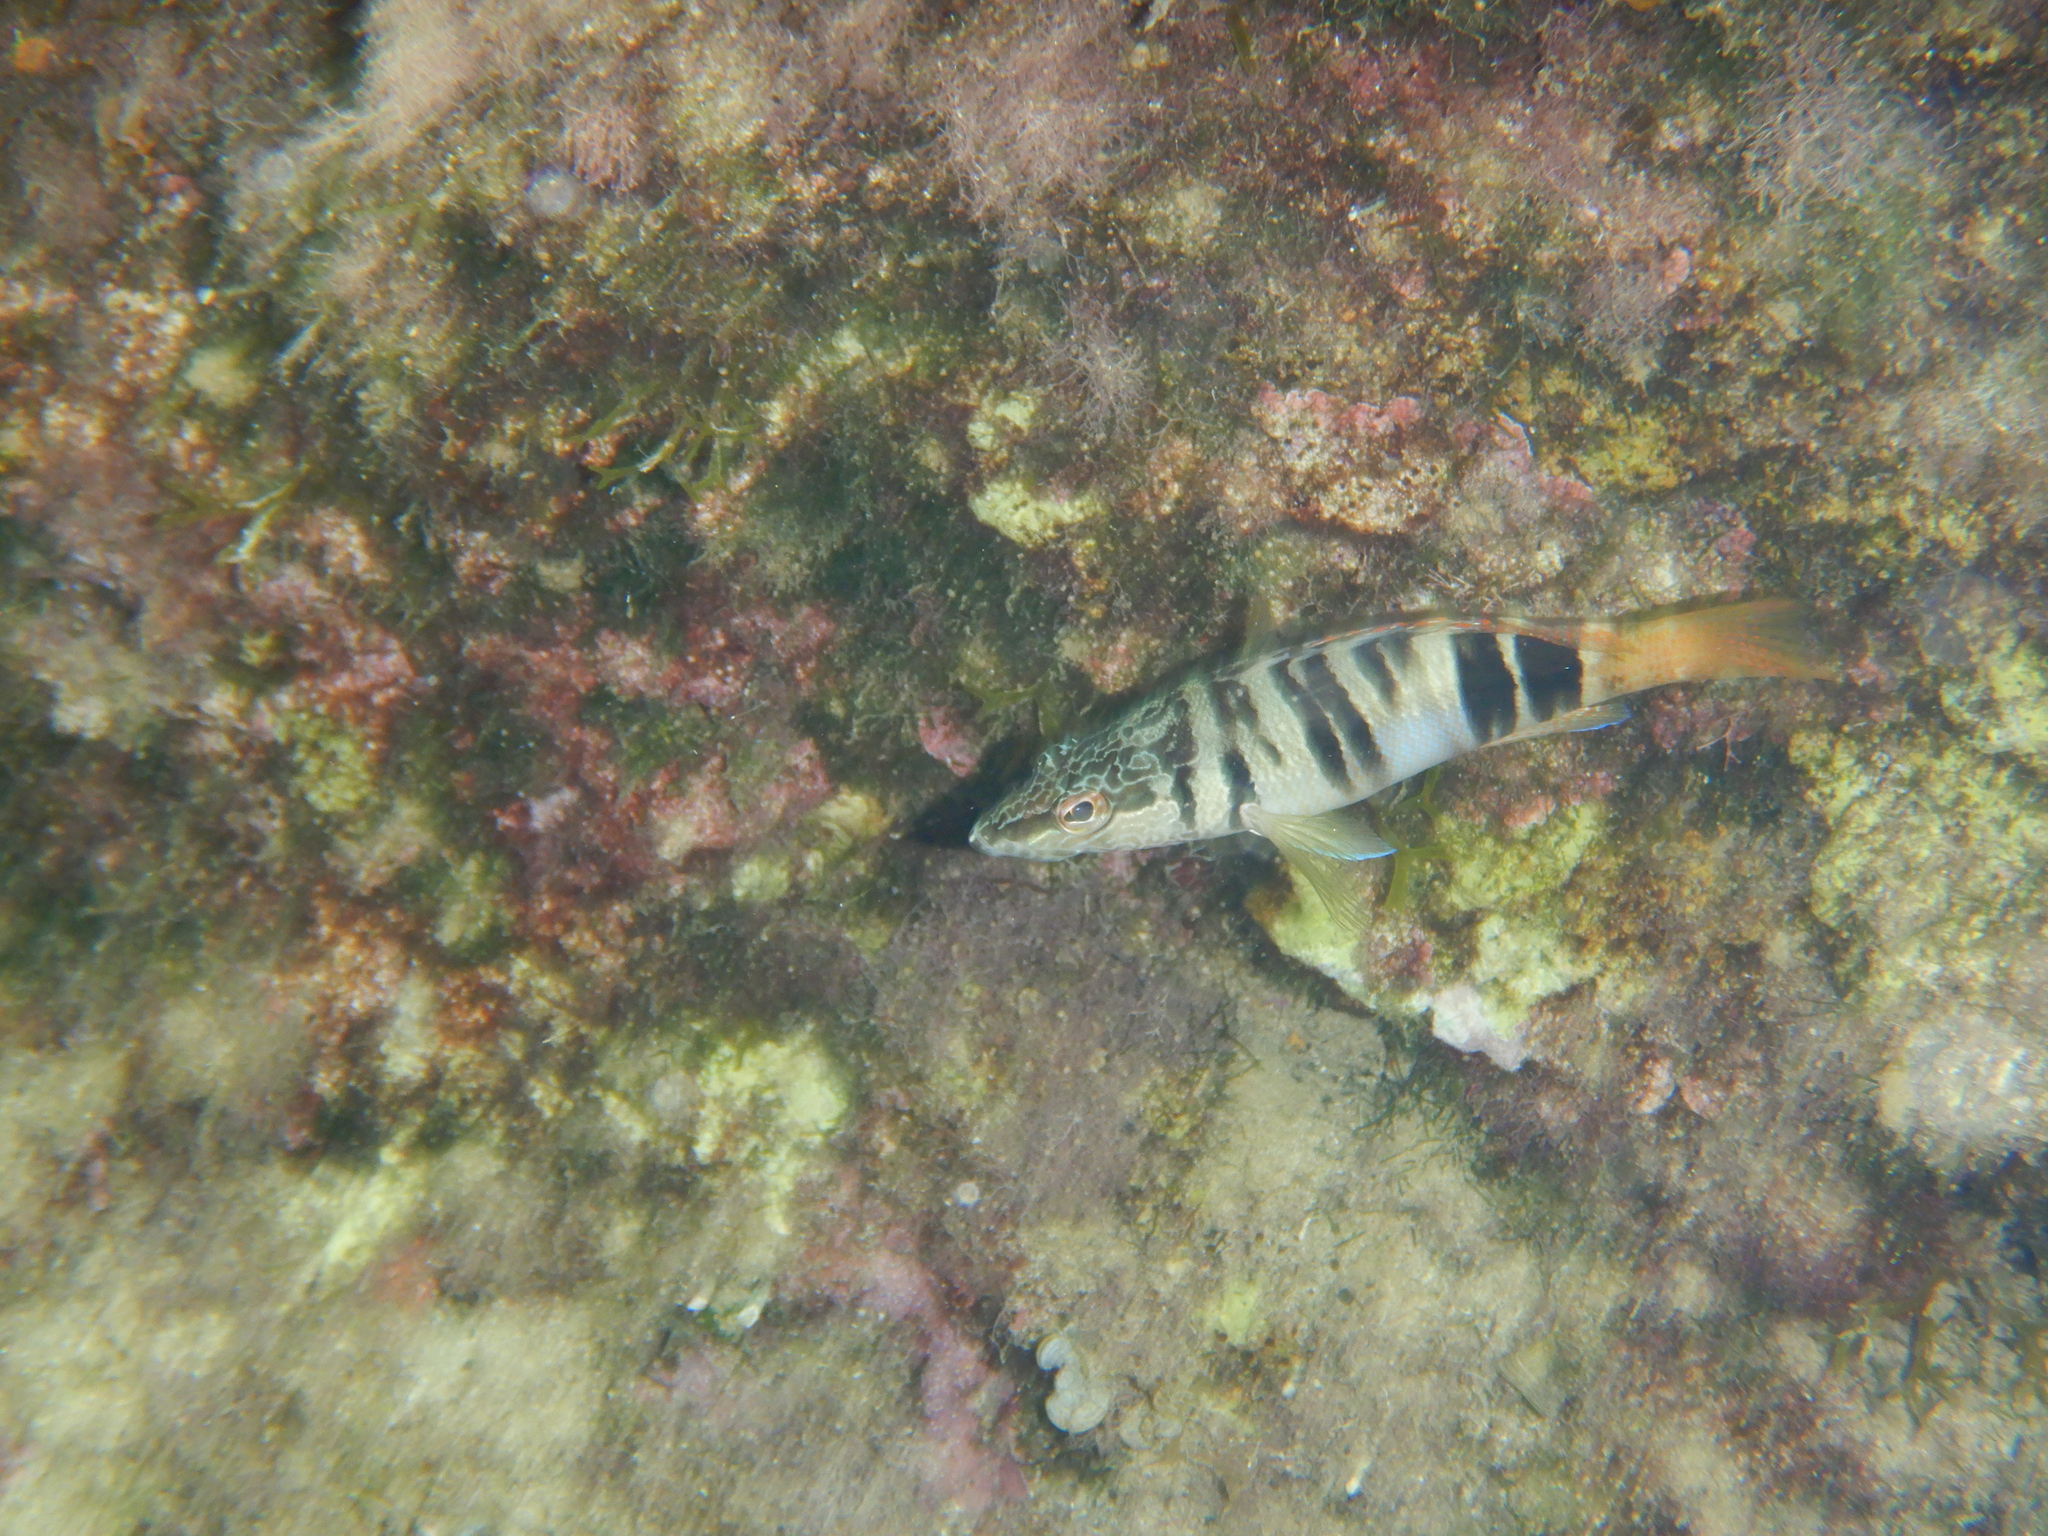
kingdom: Animalia
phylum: Chordata
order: Perciformes
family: Serranidae
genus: Serranus
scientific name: Serranus scriba
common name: Painted comber
